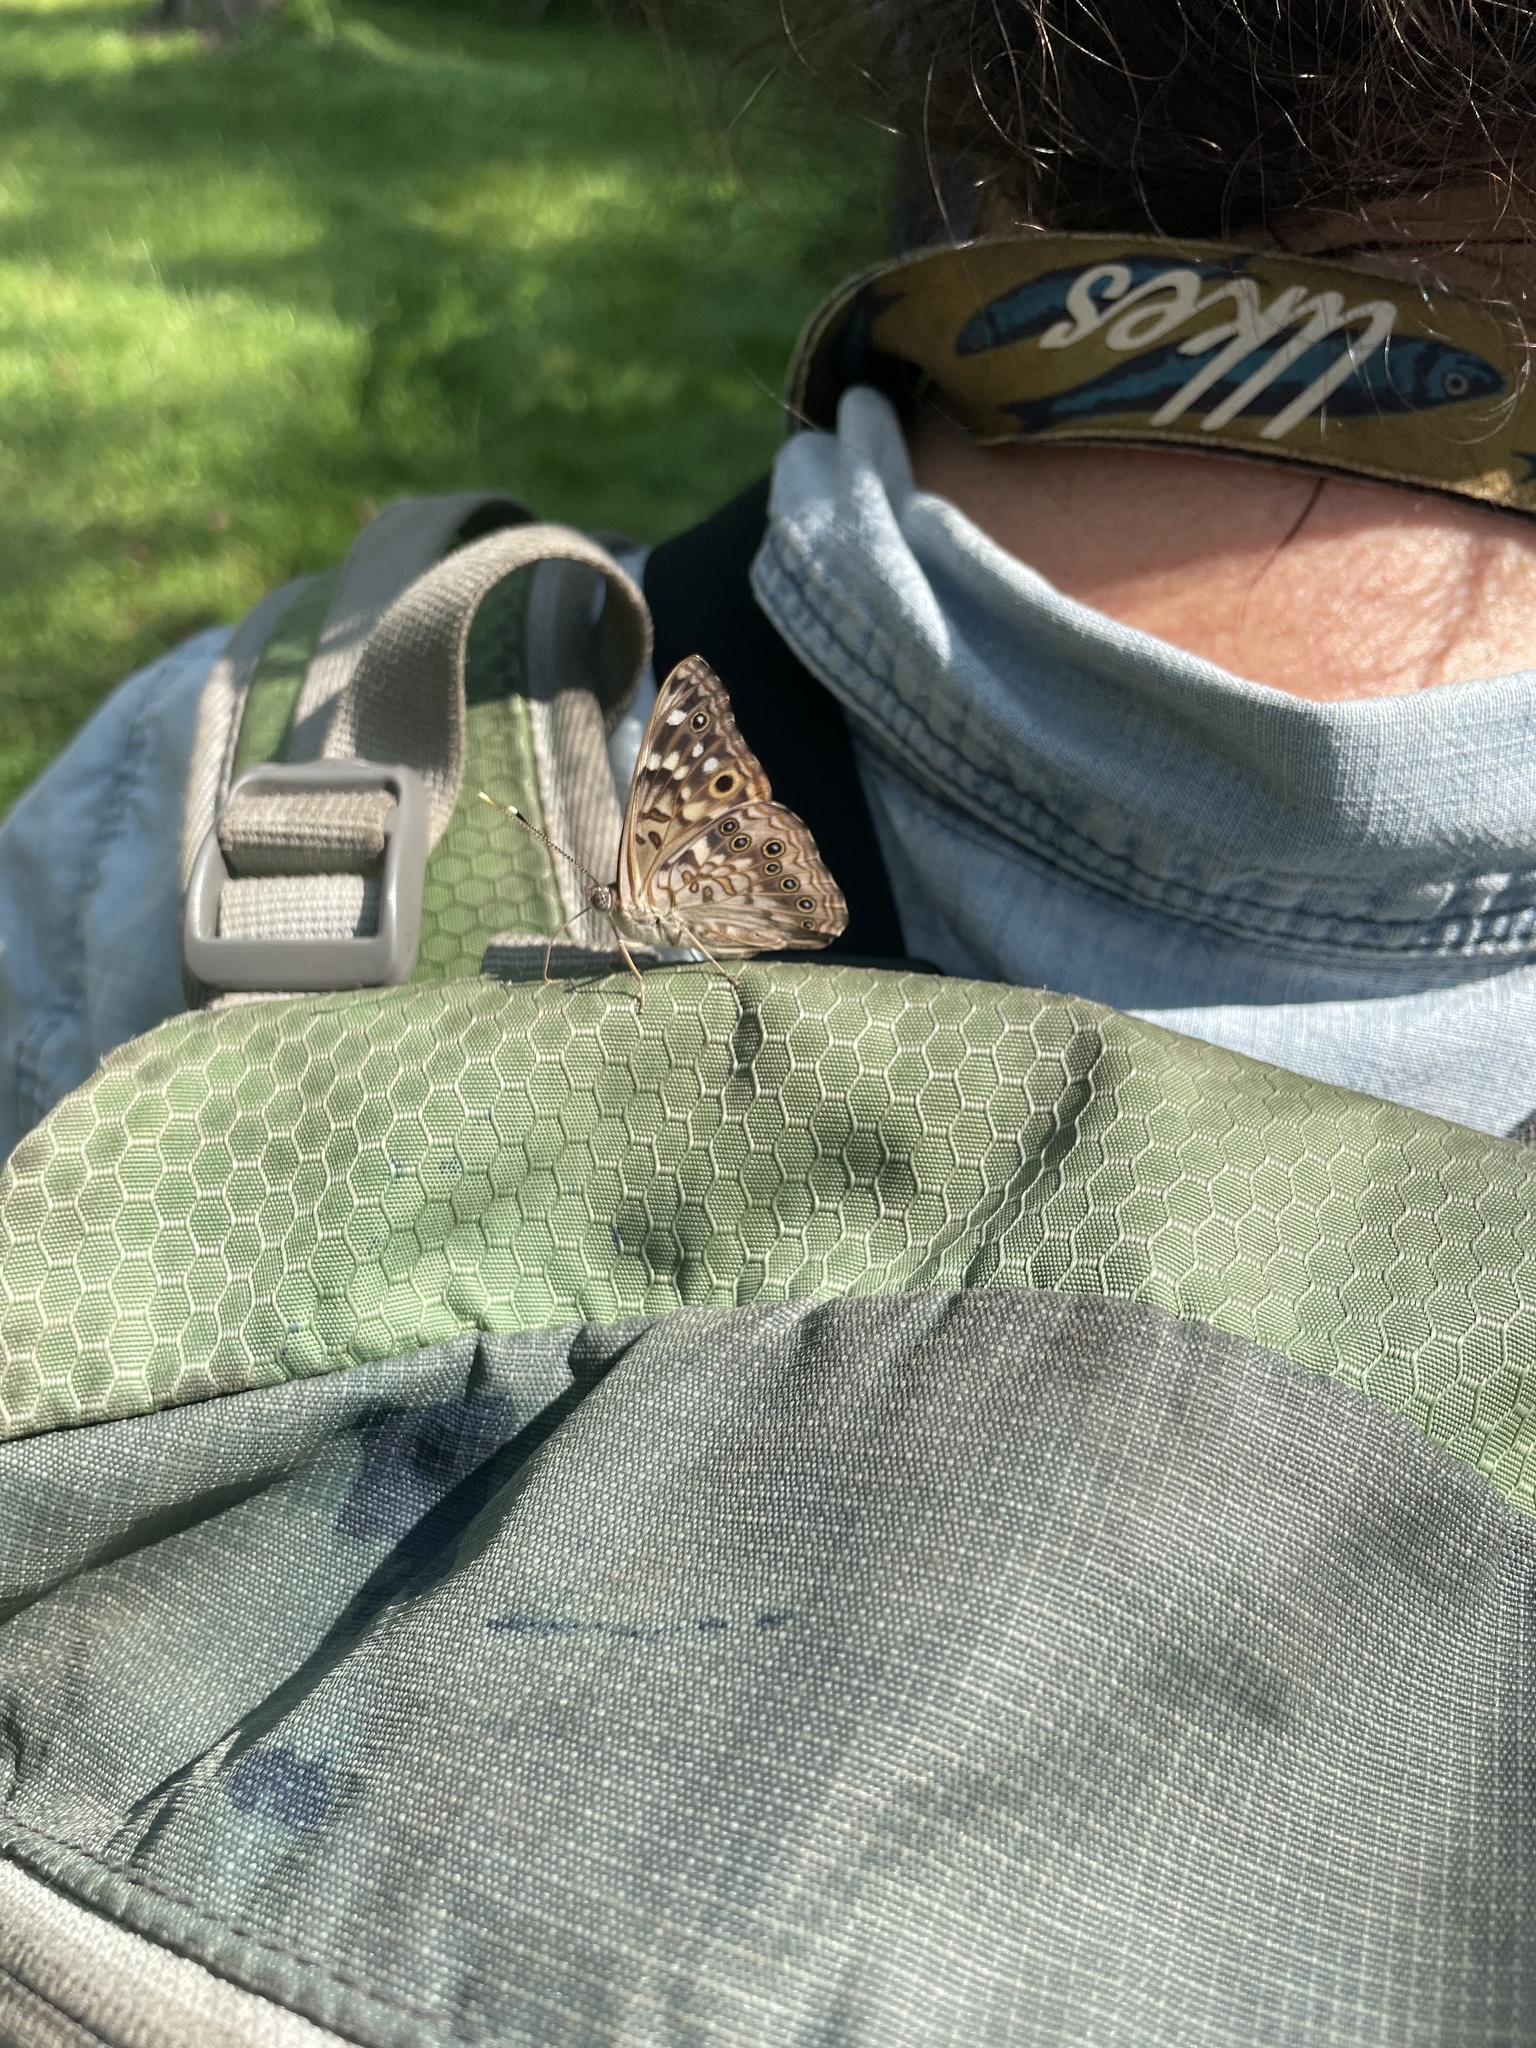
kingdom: Animalia
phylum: Arthropoda
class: Insecta
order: Lepidoptera
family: Nymphalidae
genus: Asterocampa
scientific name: Asterocampa celtis
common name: Hackberry emperor
